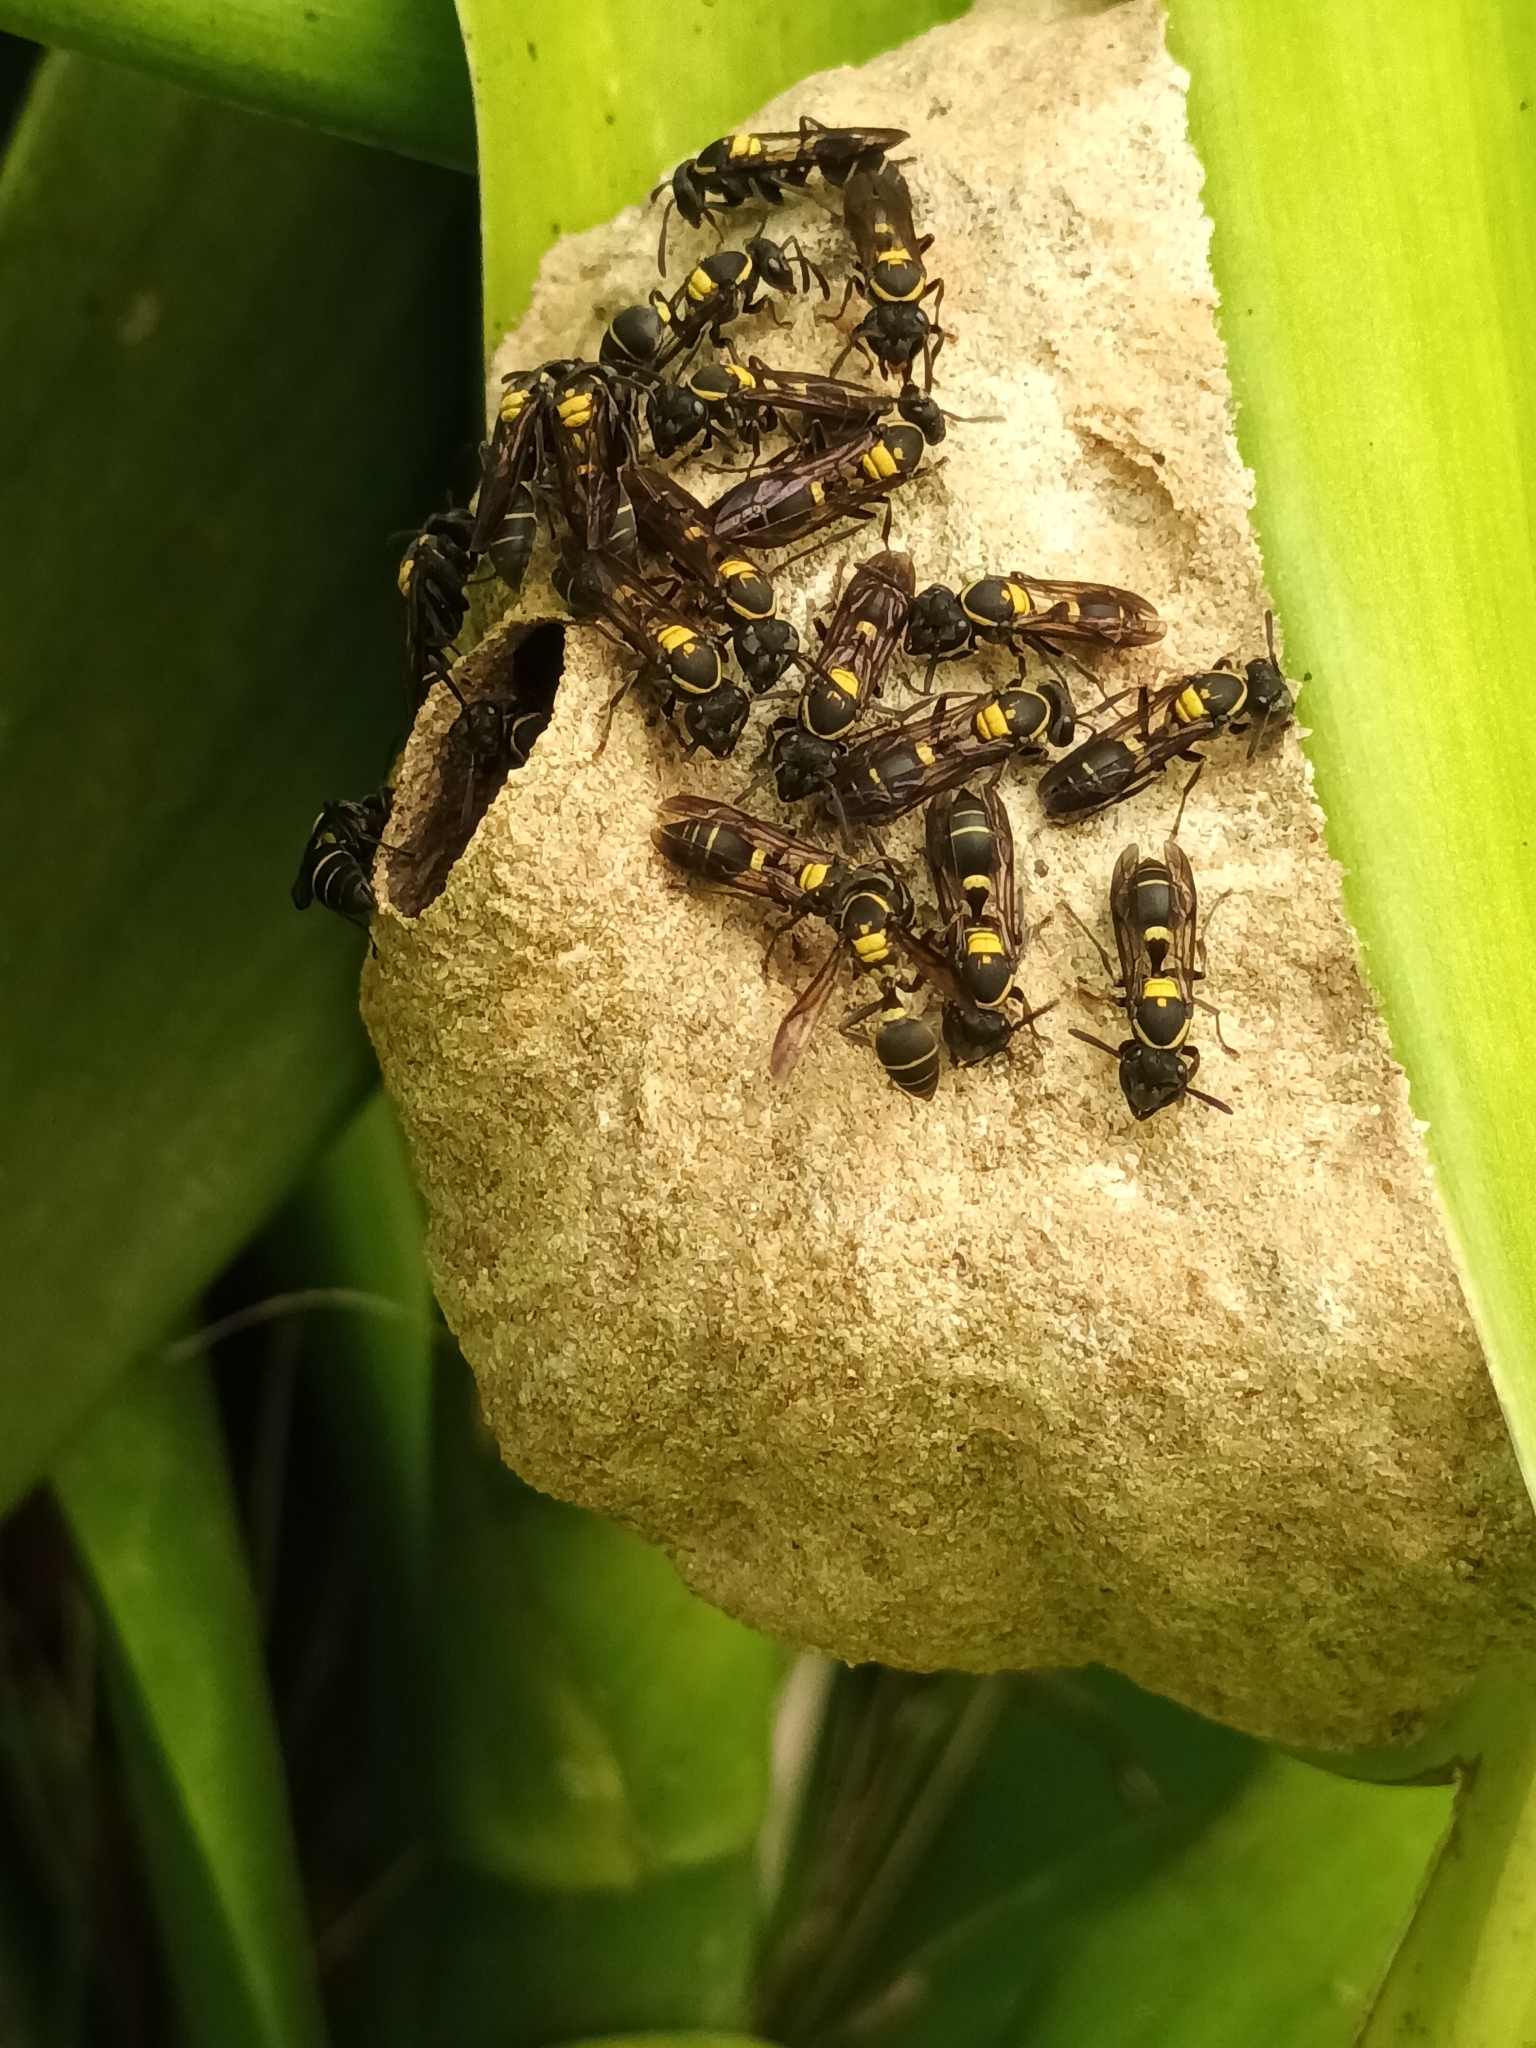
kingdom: Animalia
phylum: Arthropoda
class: Insecta
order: Hymenoptera
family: Eumenidae
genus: Polybia
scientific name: Polybia occidentalis
